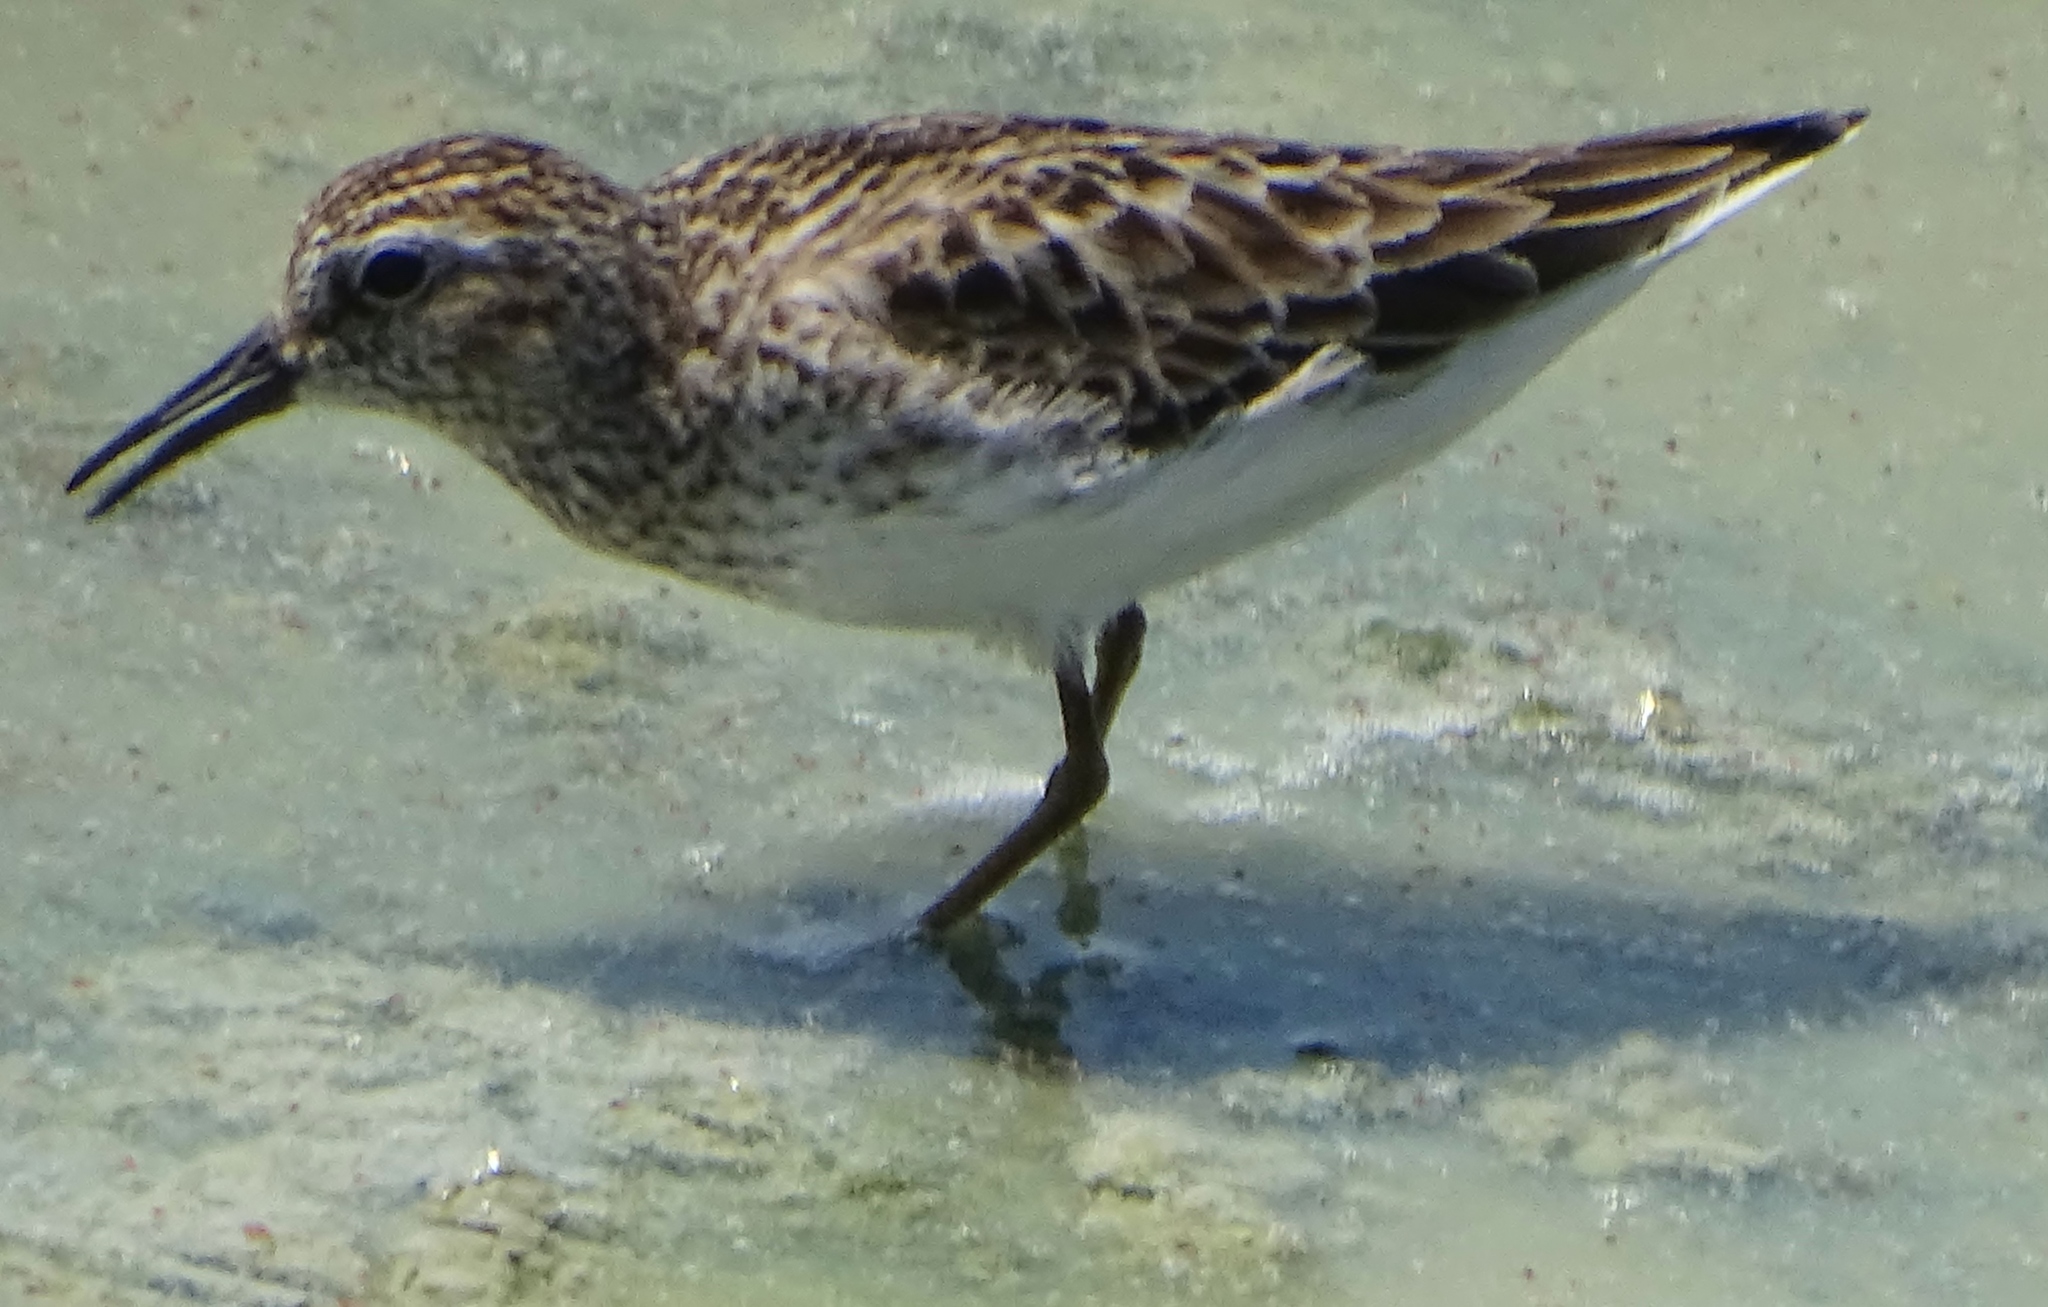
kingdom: Animalia
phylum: Chordata
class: Aves
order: Charadriiformes
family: Scolopacidae
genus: Calidris
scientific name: Calidris minutilla
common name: Least sandpiper
